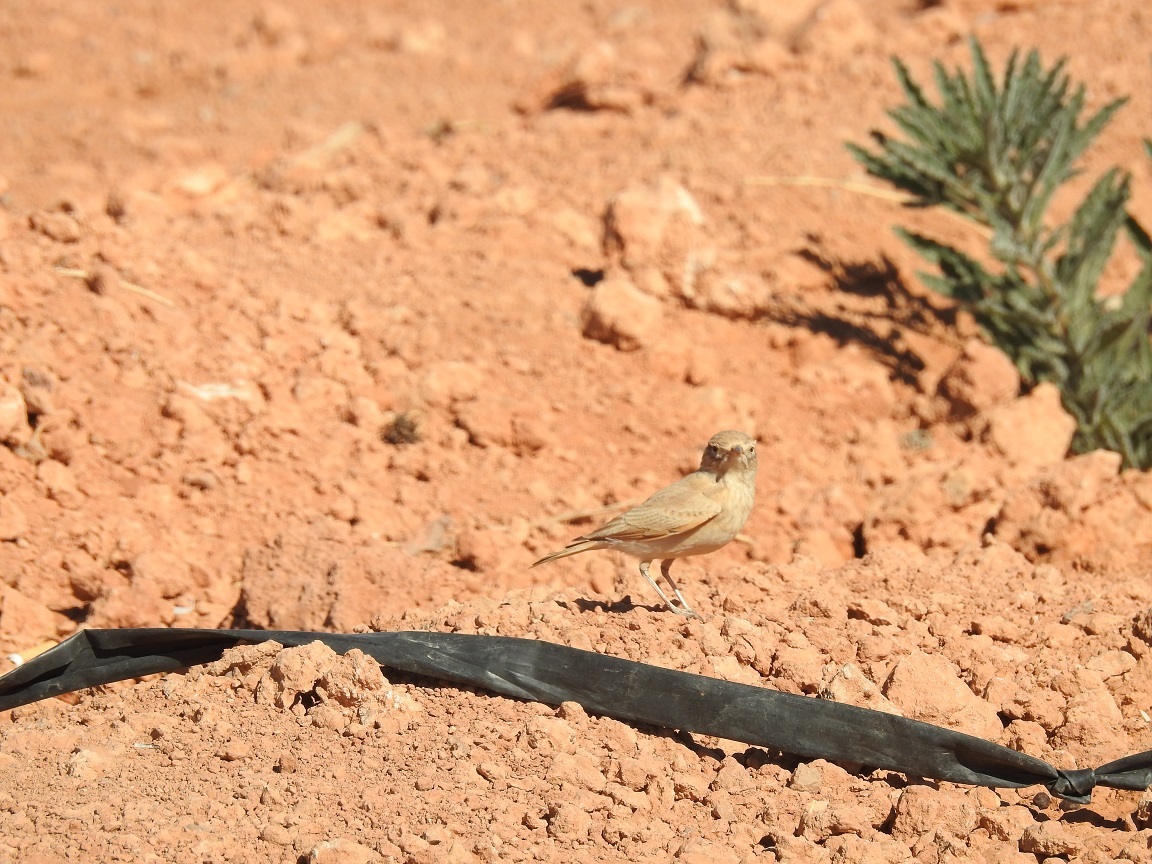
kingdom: Animalia
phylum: Chordata
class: Aves
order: Passeriformes
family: Alaudidae
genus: Ammomanes
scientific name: Ammomanes cinctura
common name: Bar-tailed lark
